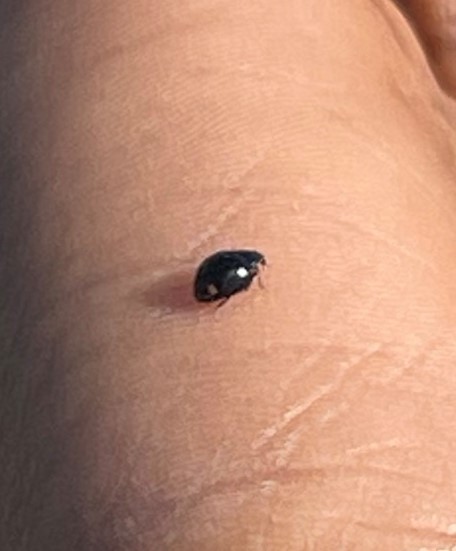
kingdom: Animalia
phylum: Arthropoda
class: Insecta
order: Coleoptera
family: Coccinellidae
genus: Hyperaspis
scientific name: Hyperaspis bigeminata
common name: Bigeminate sigil lady beetle
